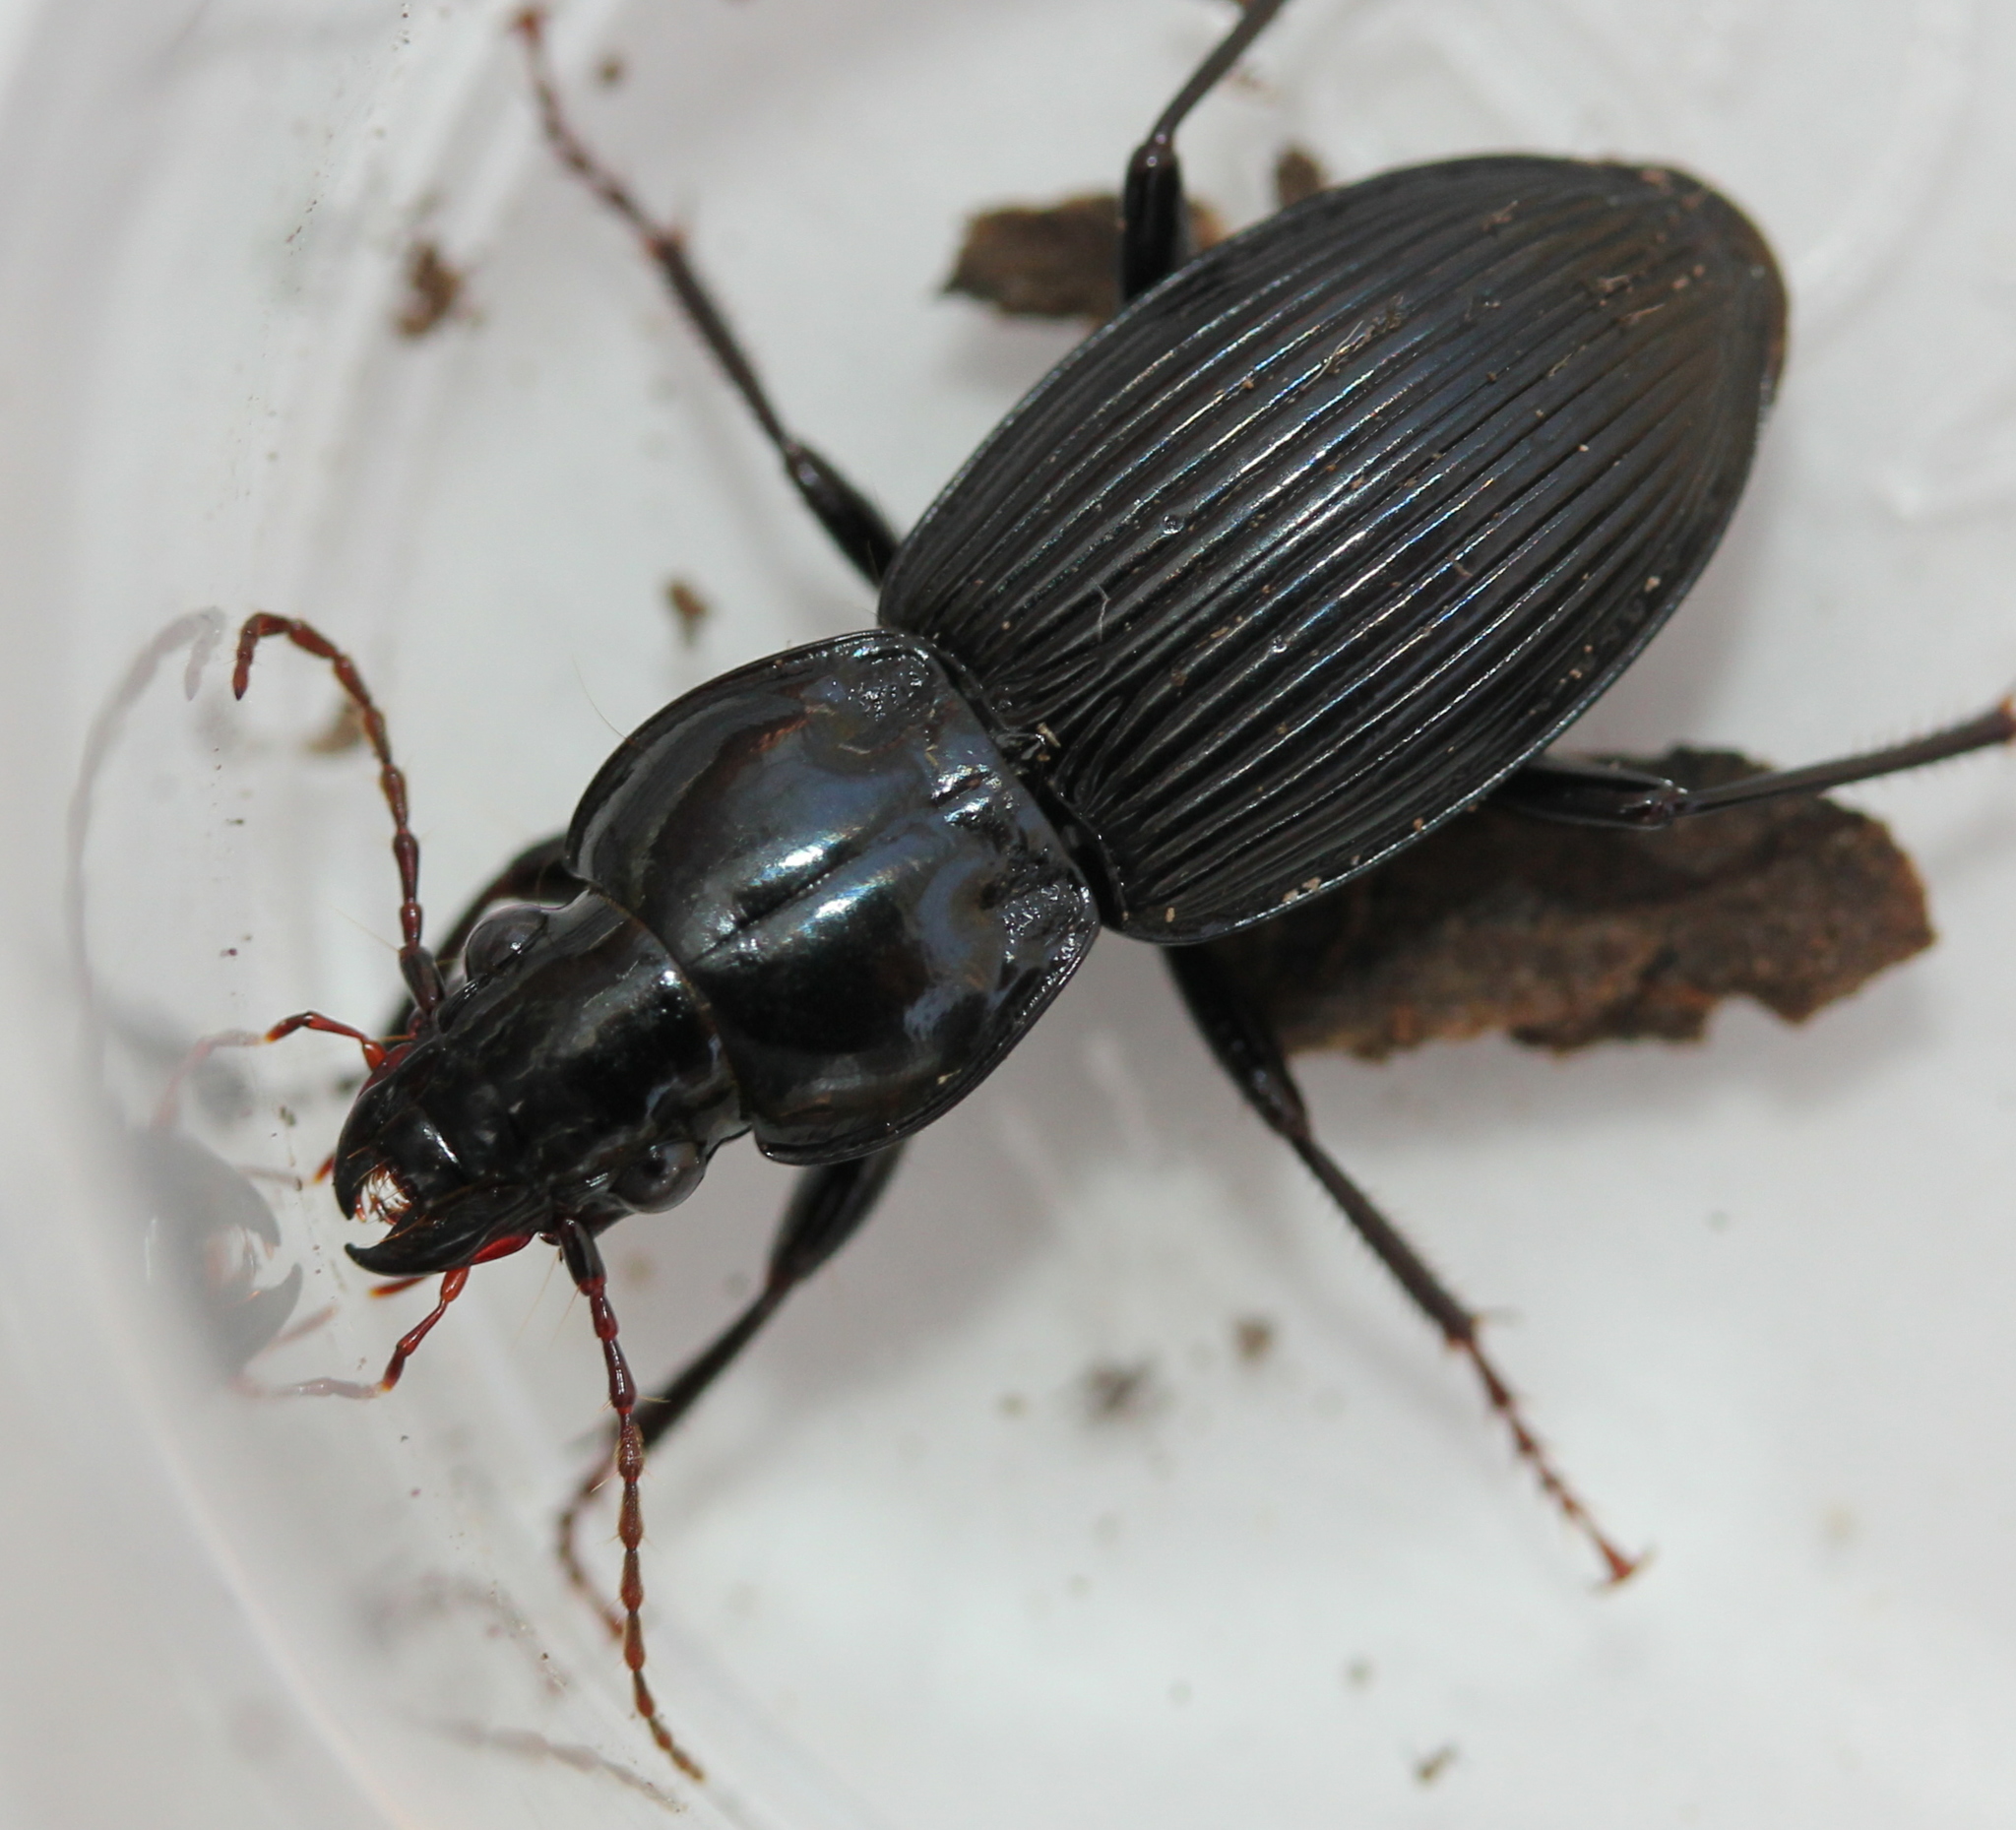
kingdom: Animalia
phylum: Arthropoda
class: Insecta
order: Coleoptera
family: Carabidae
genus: Pterostichus
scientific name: Pterostichus stygicus
